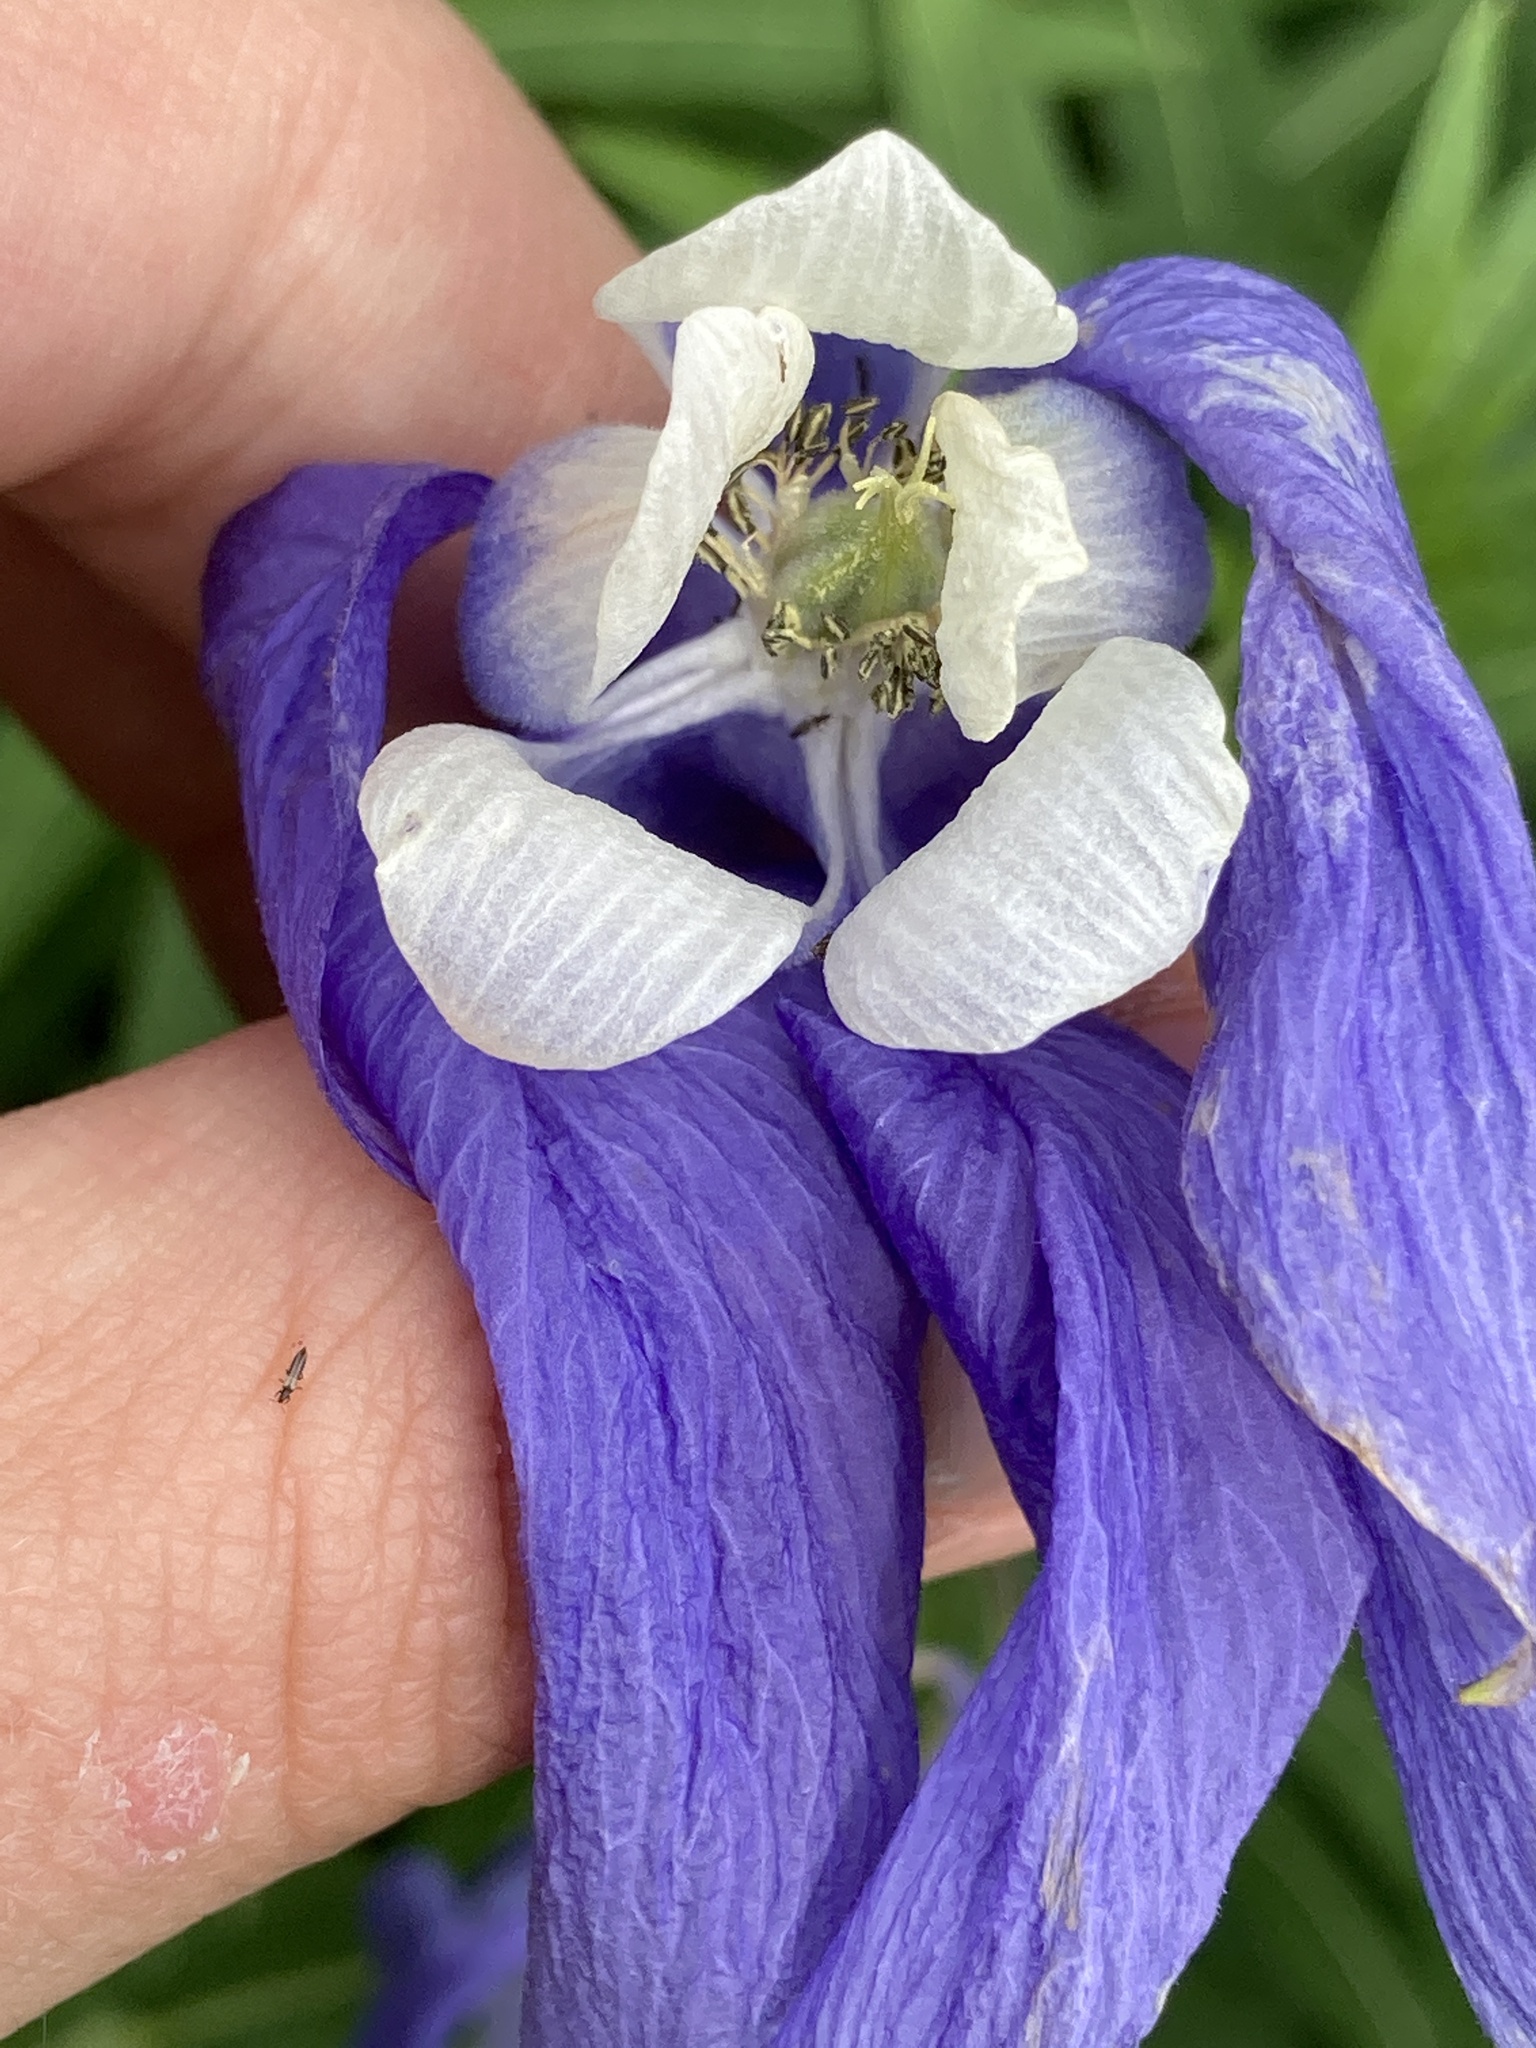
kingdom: Plantae
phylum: Tracheophyta
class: Magnoliopsida
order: Ranunculales
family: Ranunculaceae
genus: Aquilegia
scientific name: Aquilegia olympica
